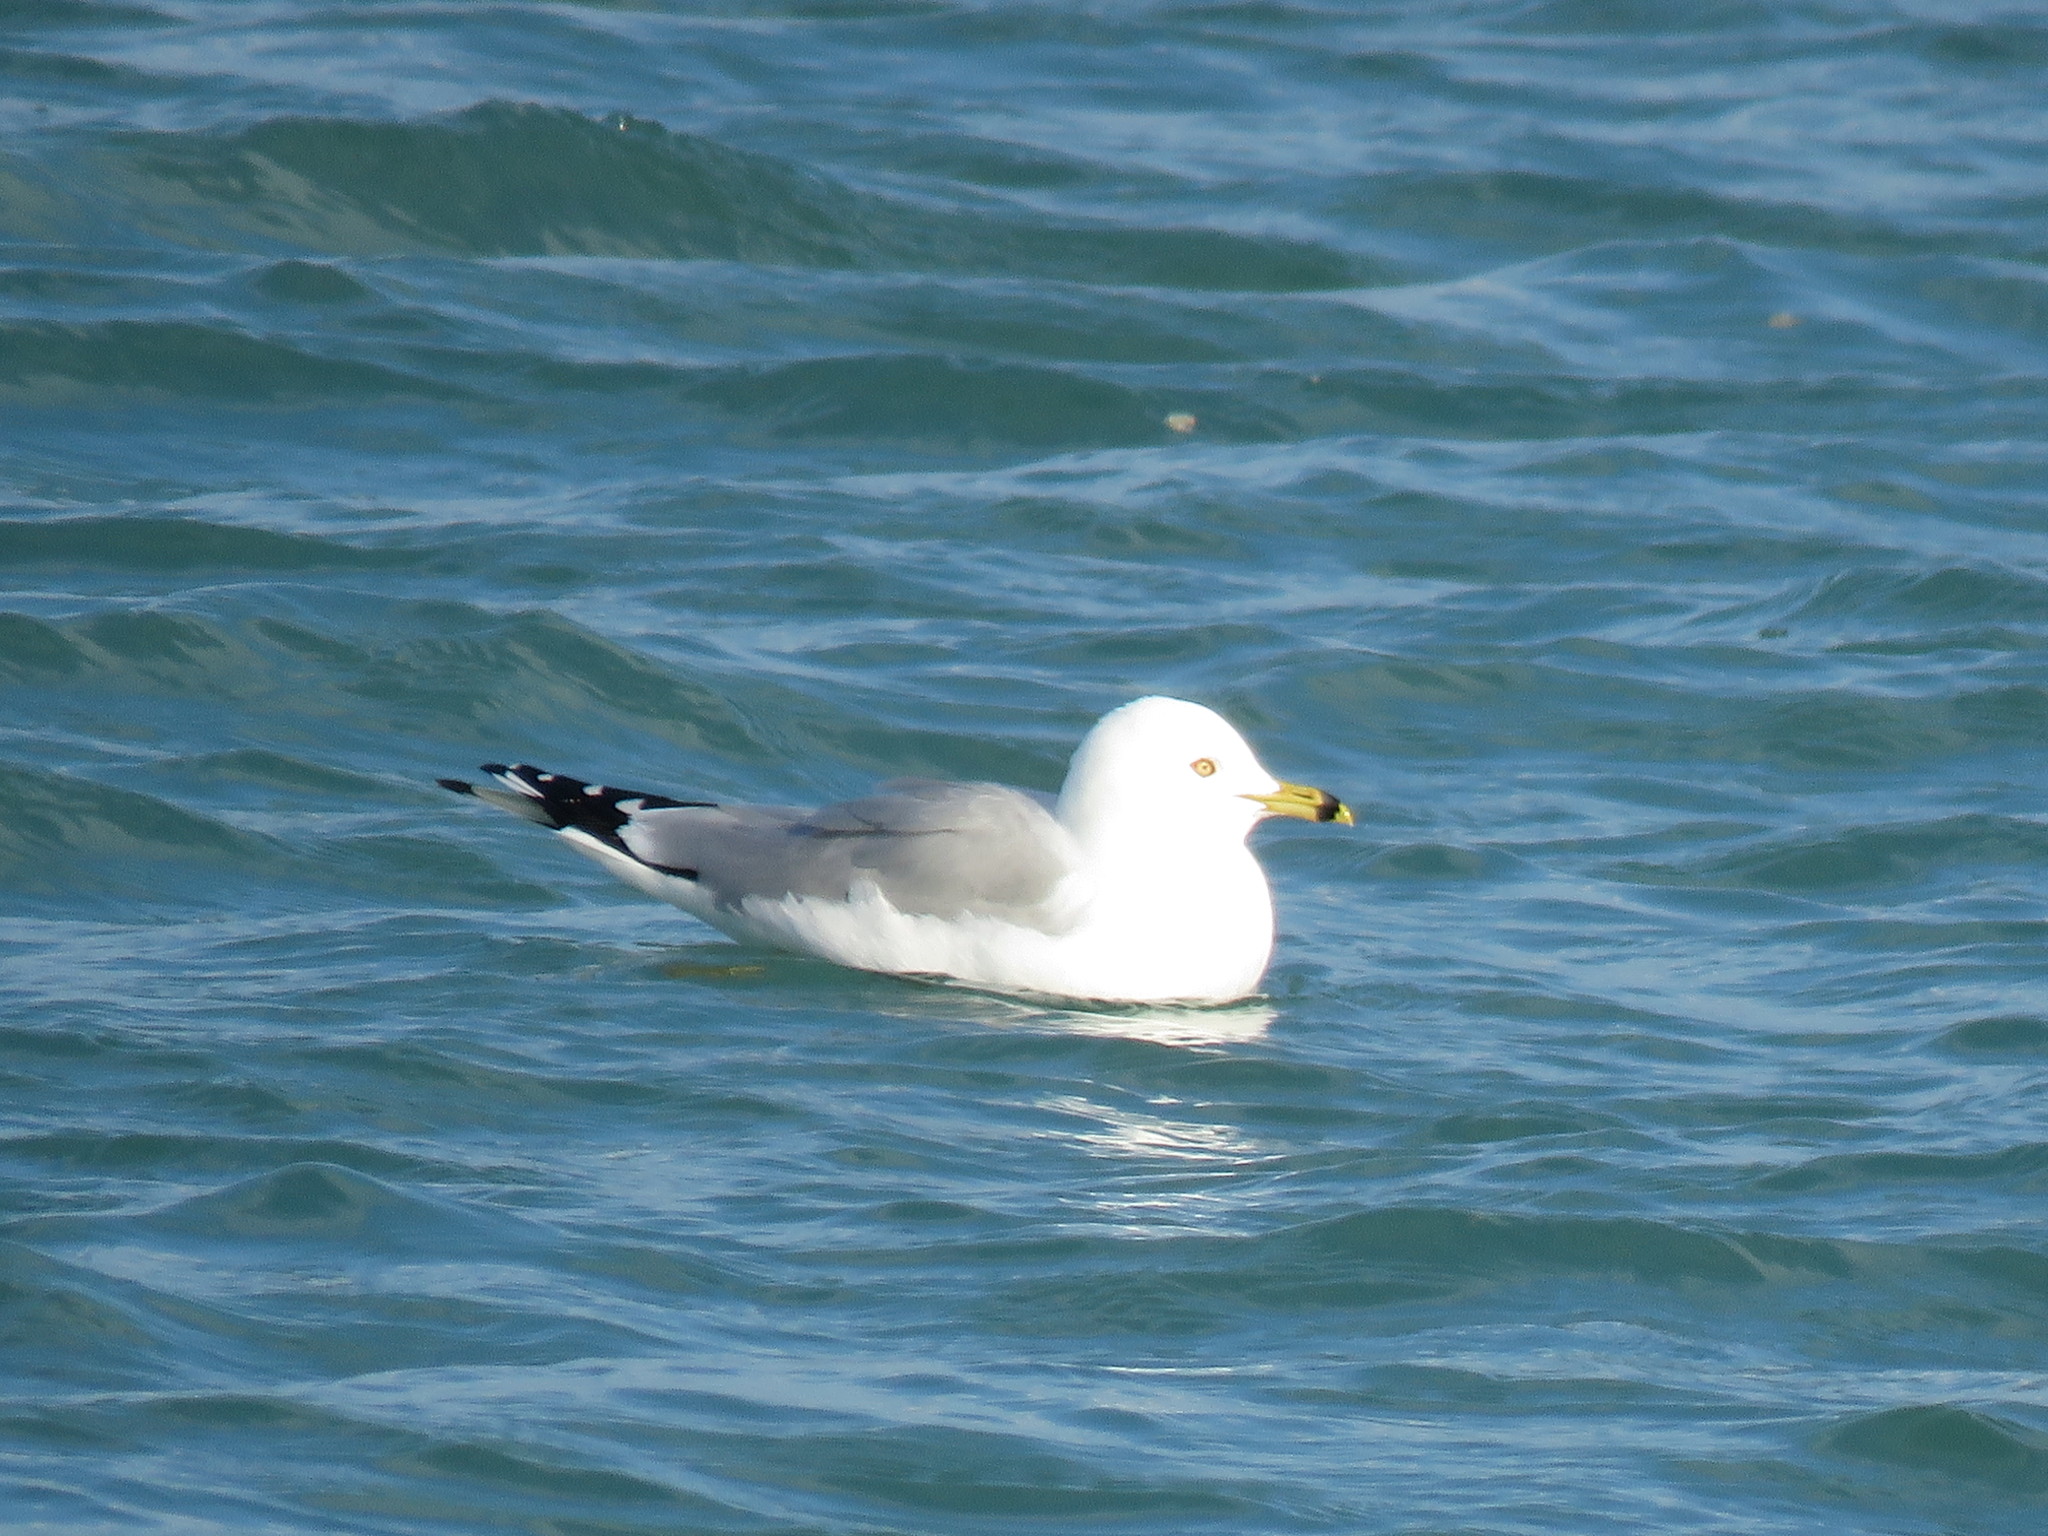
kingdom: Animalia
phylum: Chordata
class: Aves
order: Charadriiformes
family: Laridae
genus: Larus
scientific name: Larus delawarensis
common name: Ring-billed gull
